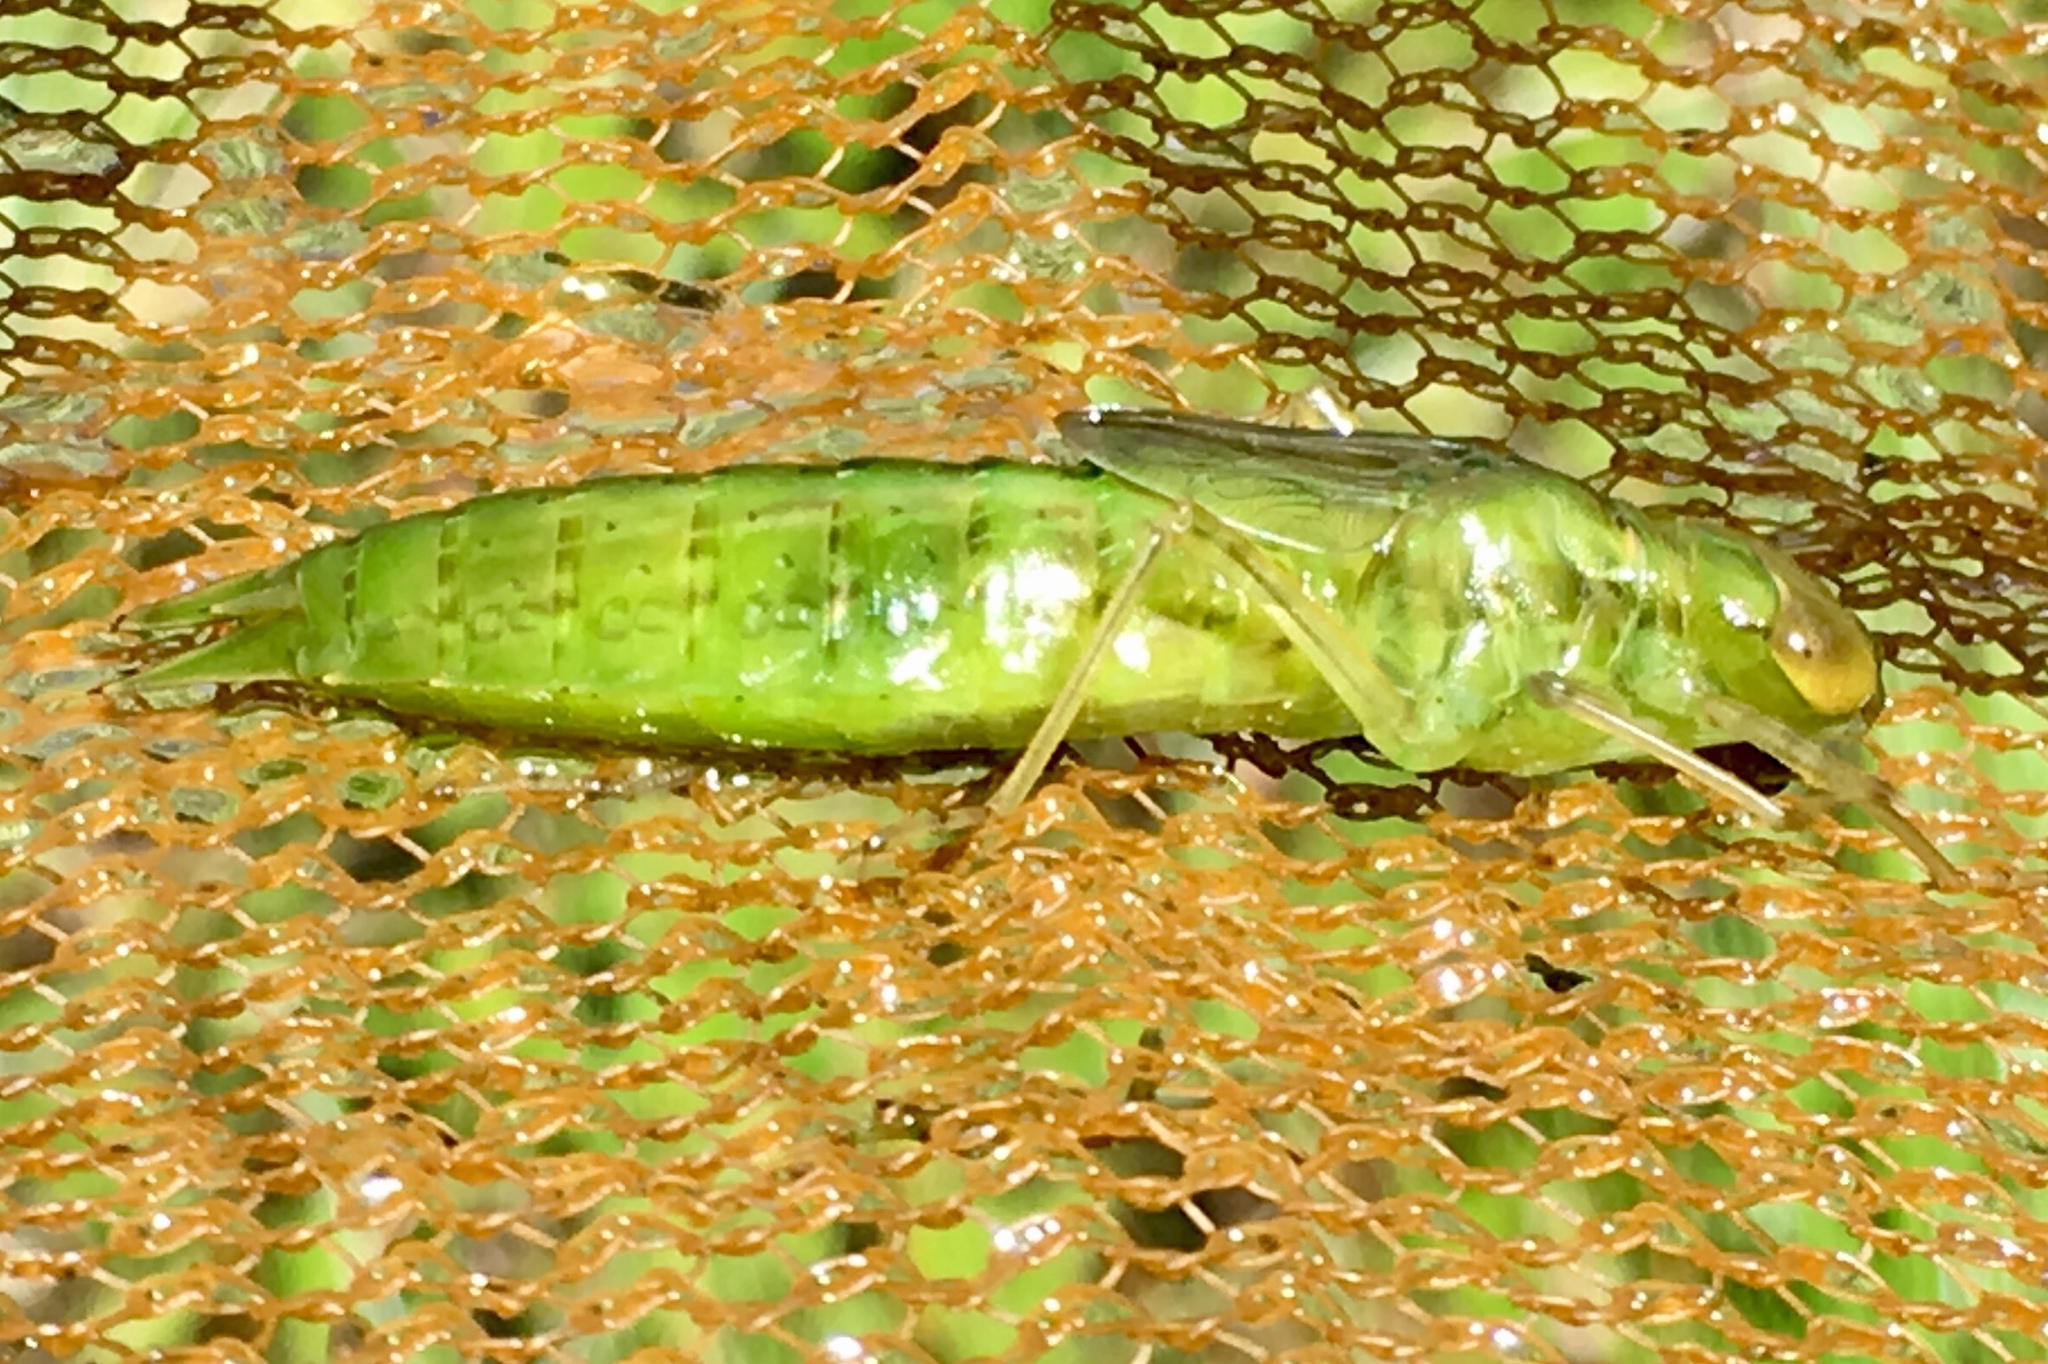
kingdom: Animalia
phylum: Arthropoda
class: Insecta
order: Odonata
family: Aeshnidae
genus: Anax
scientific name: Anax junius
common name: Common green darner
